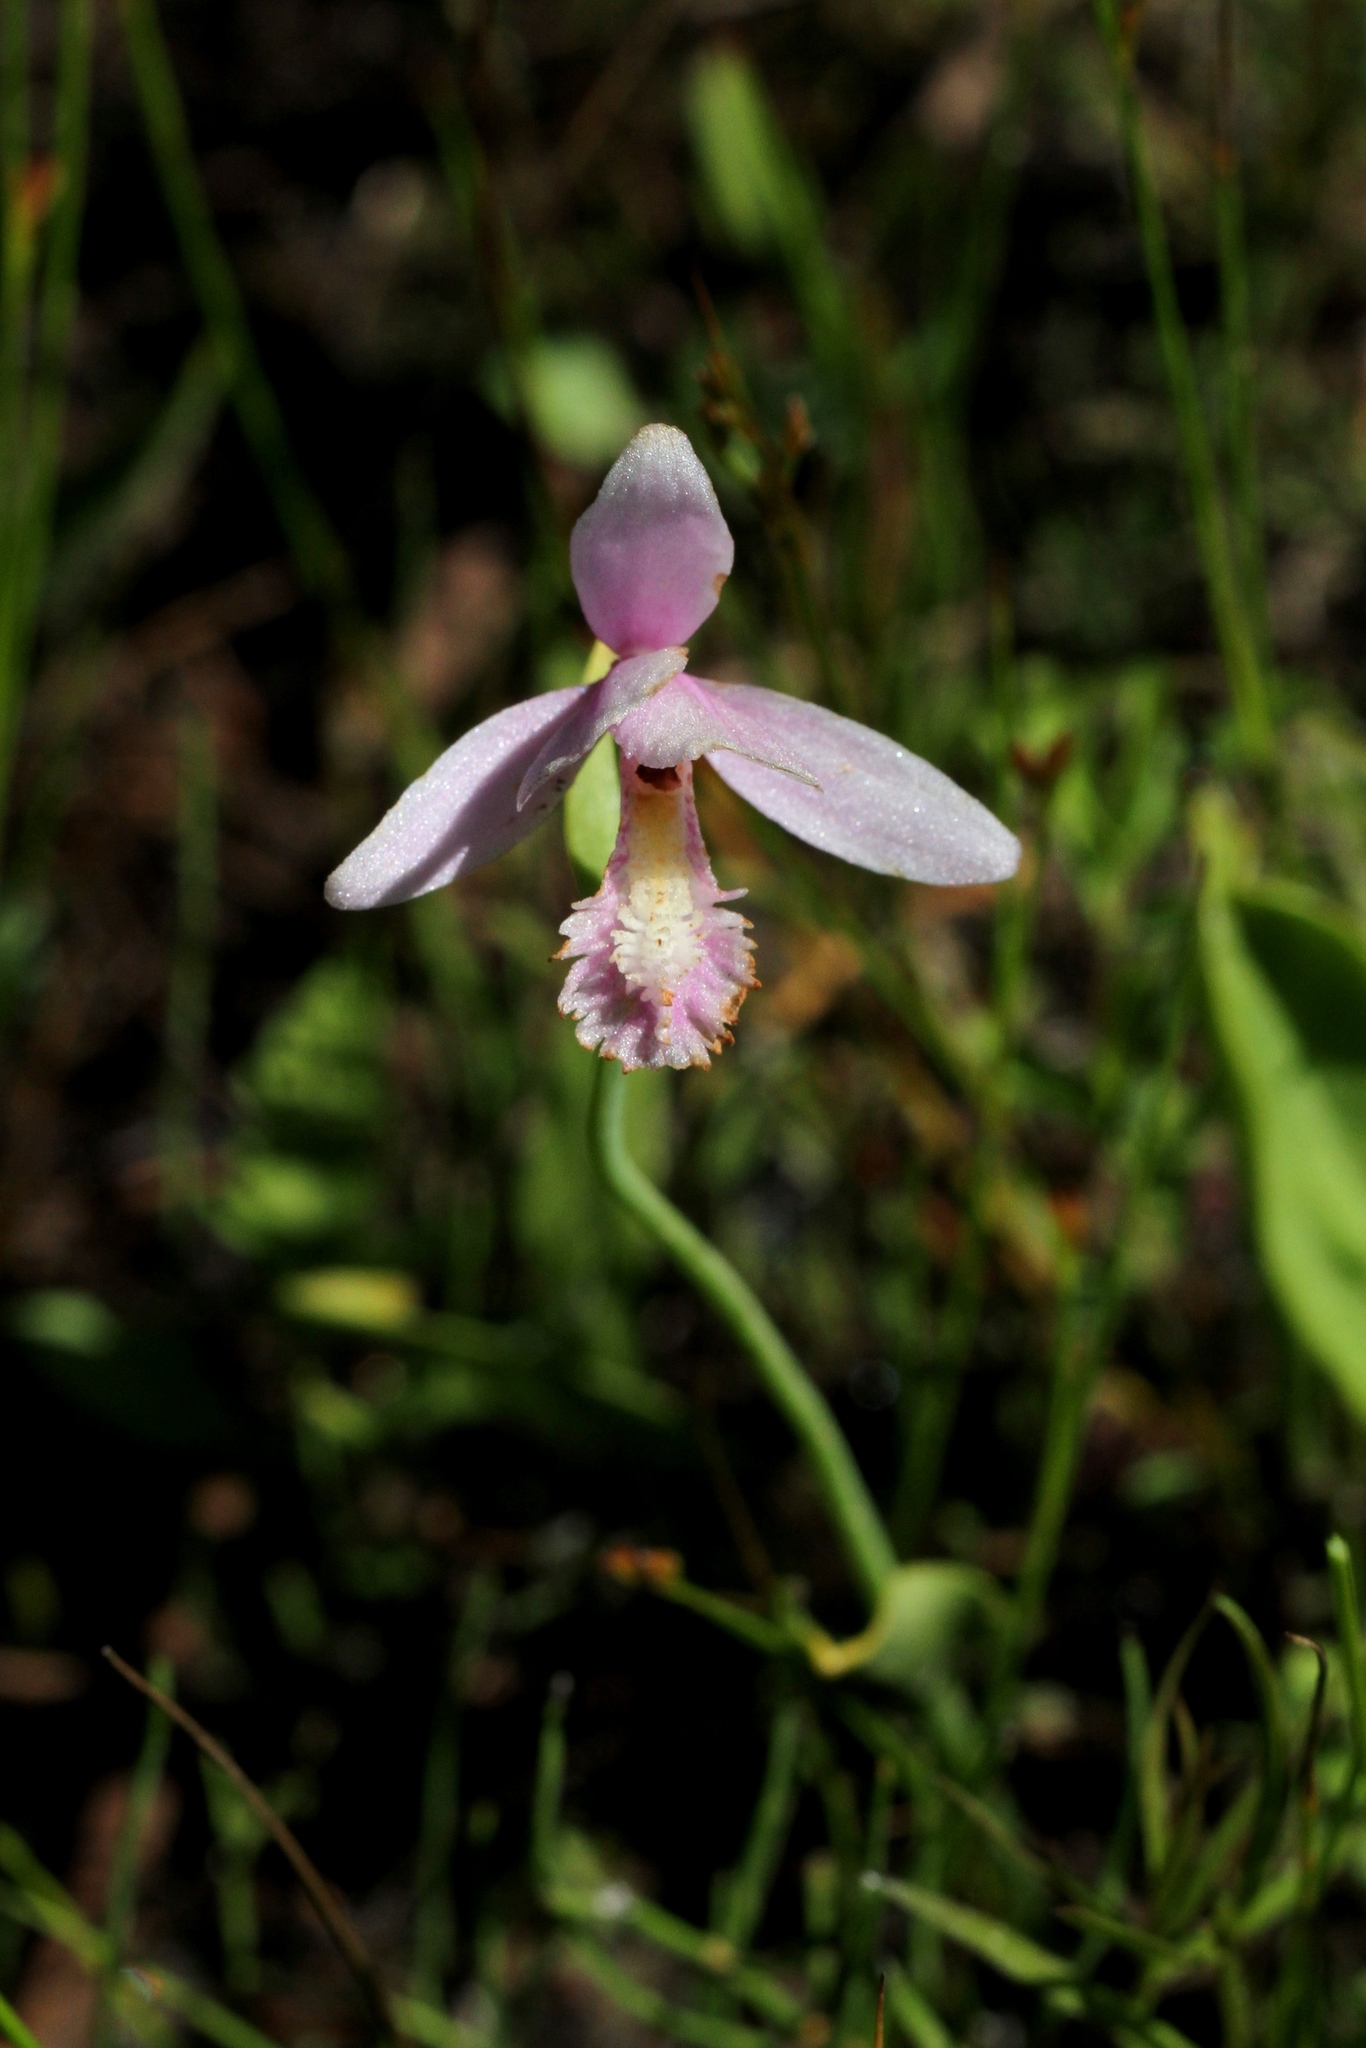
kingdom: Plantae
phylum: Tracheophyta
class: Liliopsida
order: Asparagales
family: Orchidaceae
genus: Pogonia
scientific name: Pogonia ophioglossoides
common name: Rose pogonia
